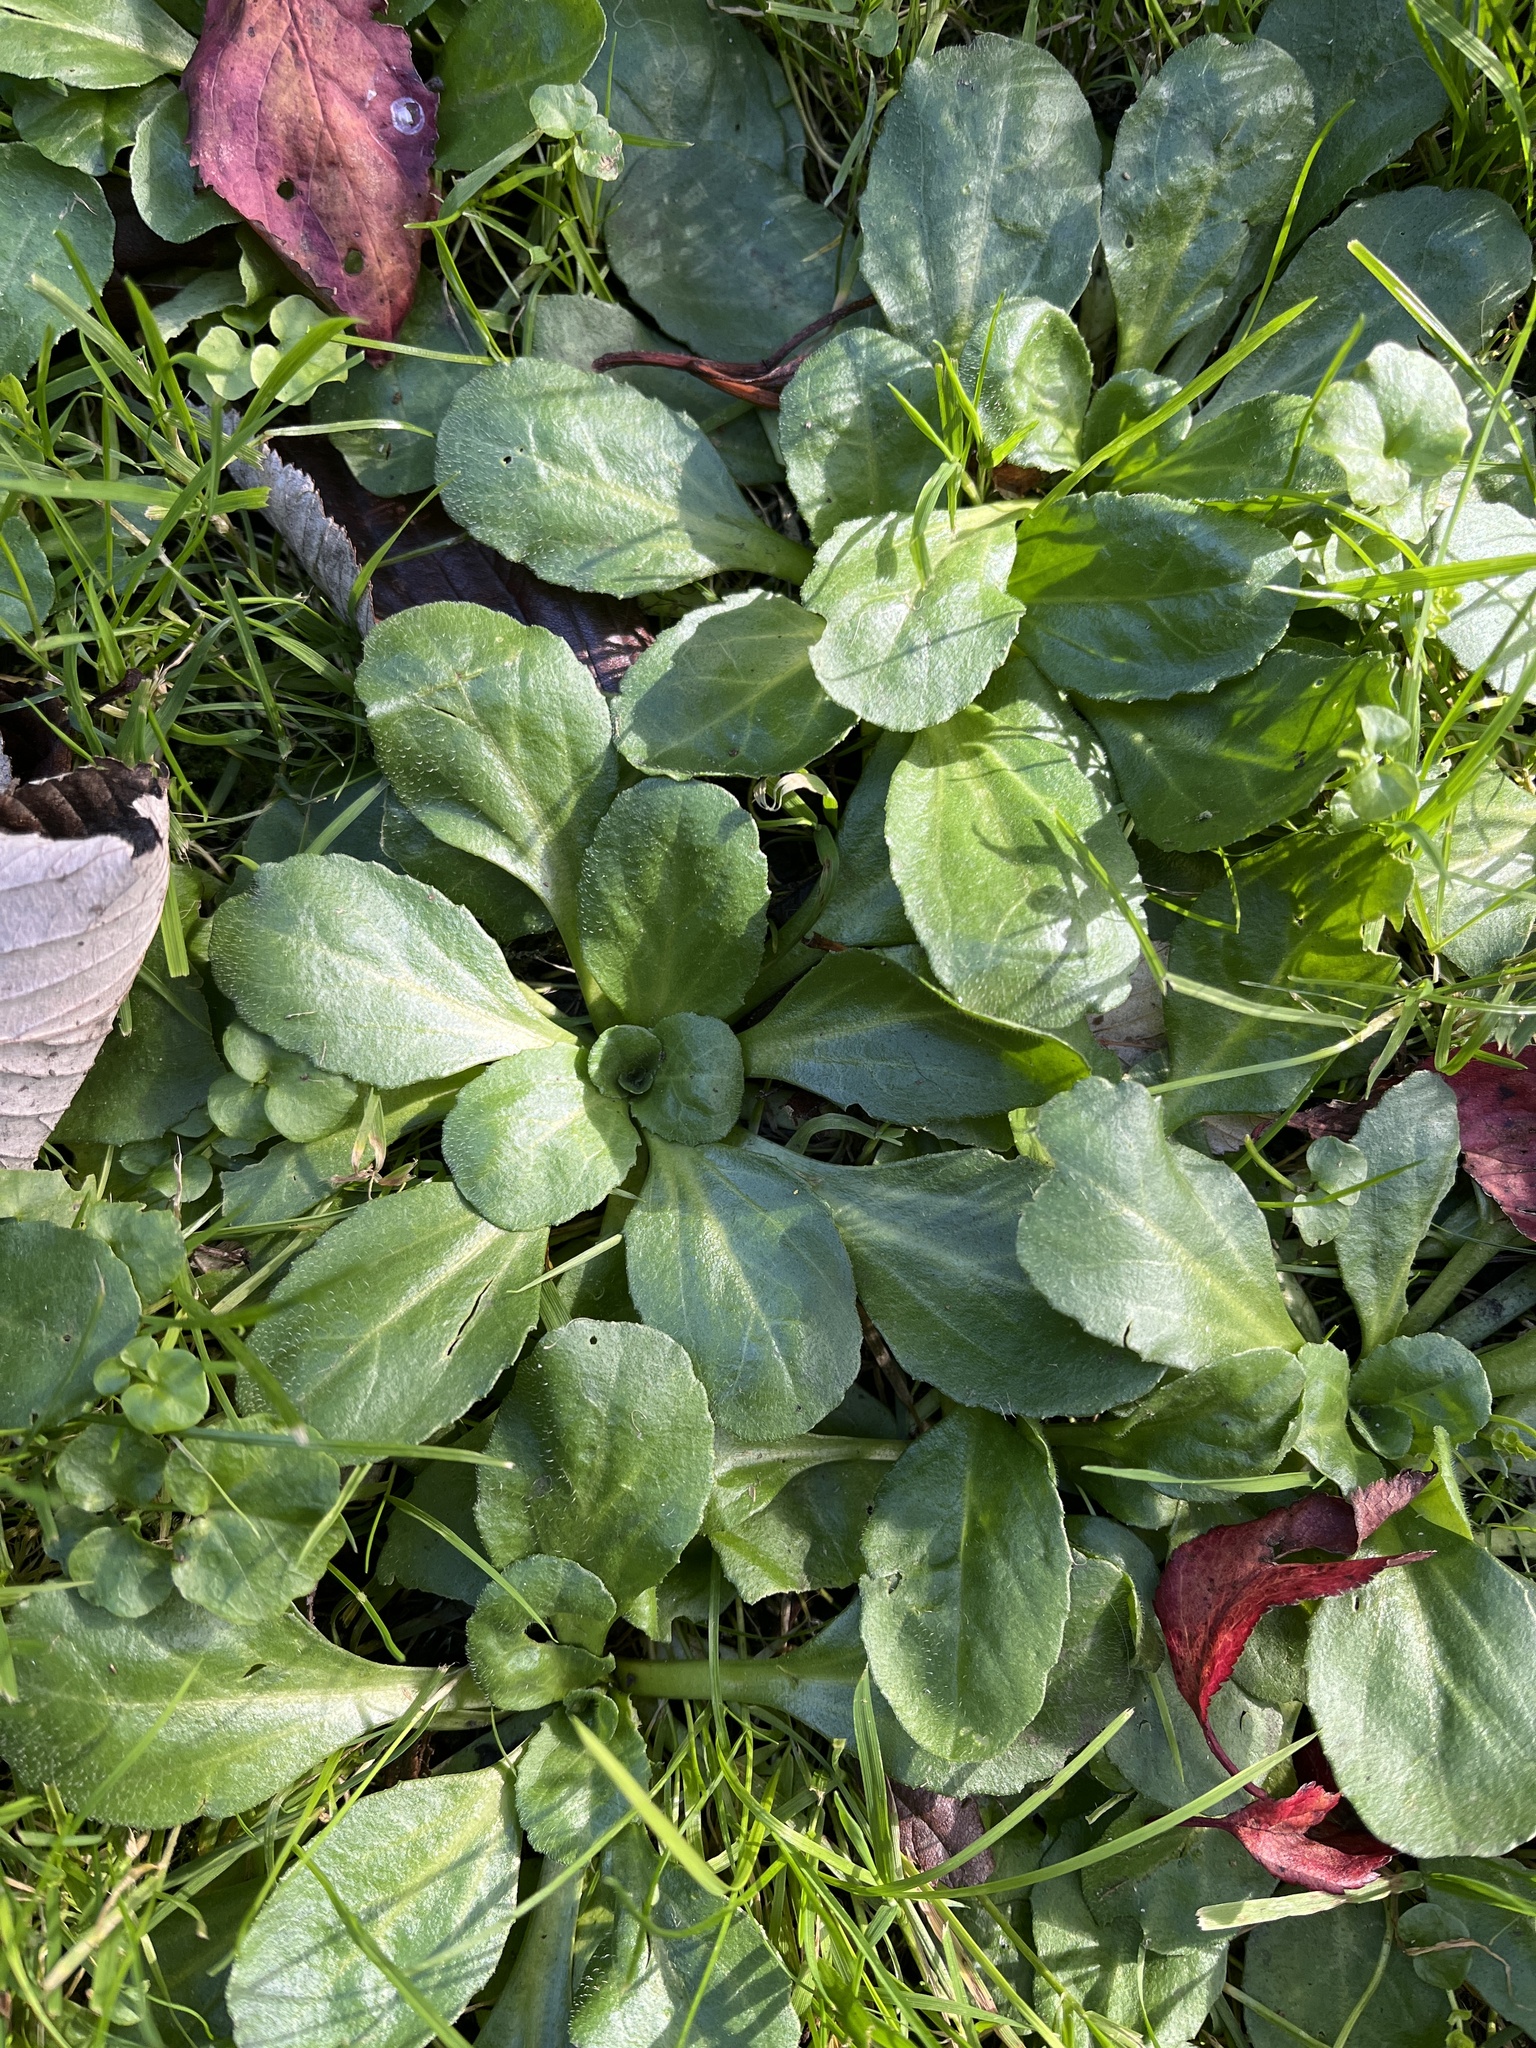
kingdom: Plantae
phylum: Tracheophyta
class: Magnoliopsida
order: Asterales
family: Asteraceae
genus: Bellis
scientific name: Bellis perennis
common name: Lawndaisy
